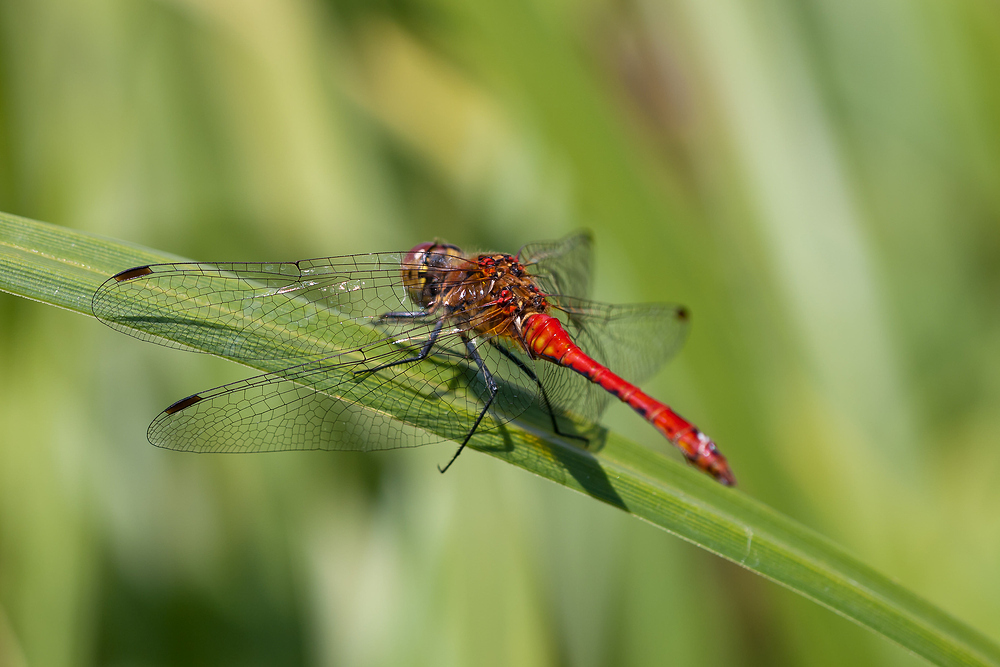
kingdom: Animalia
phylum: Arthropoda
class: Insecta
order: Odonata
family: Libellulidae
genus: Sympetrum
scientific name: Sympetrum sanguineum
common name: Ruddy darter
